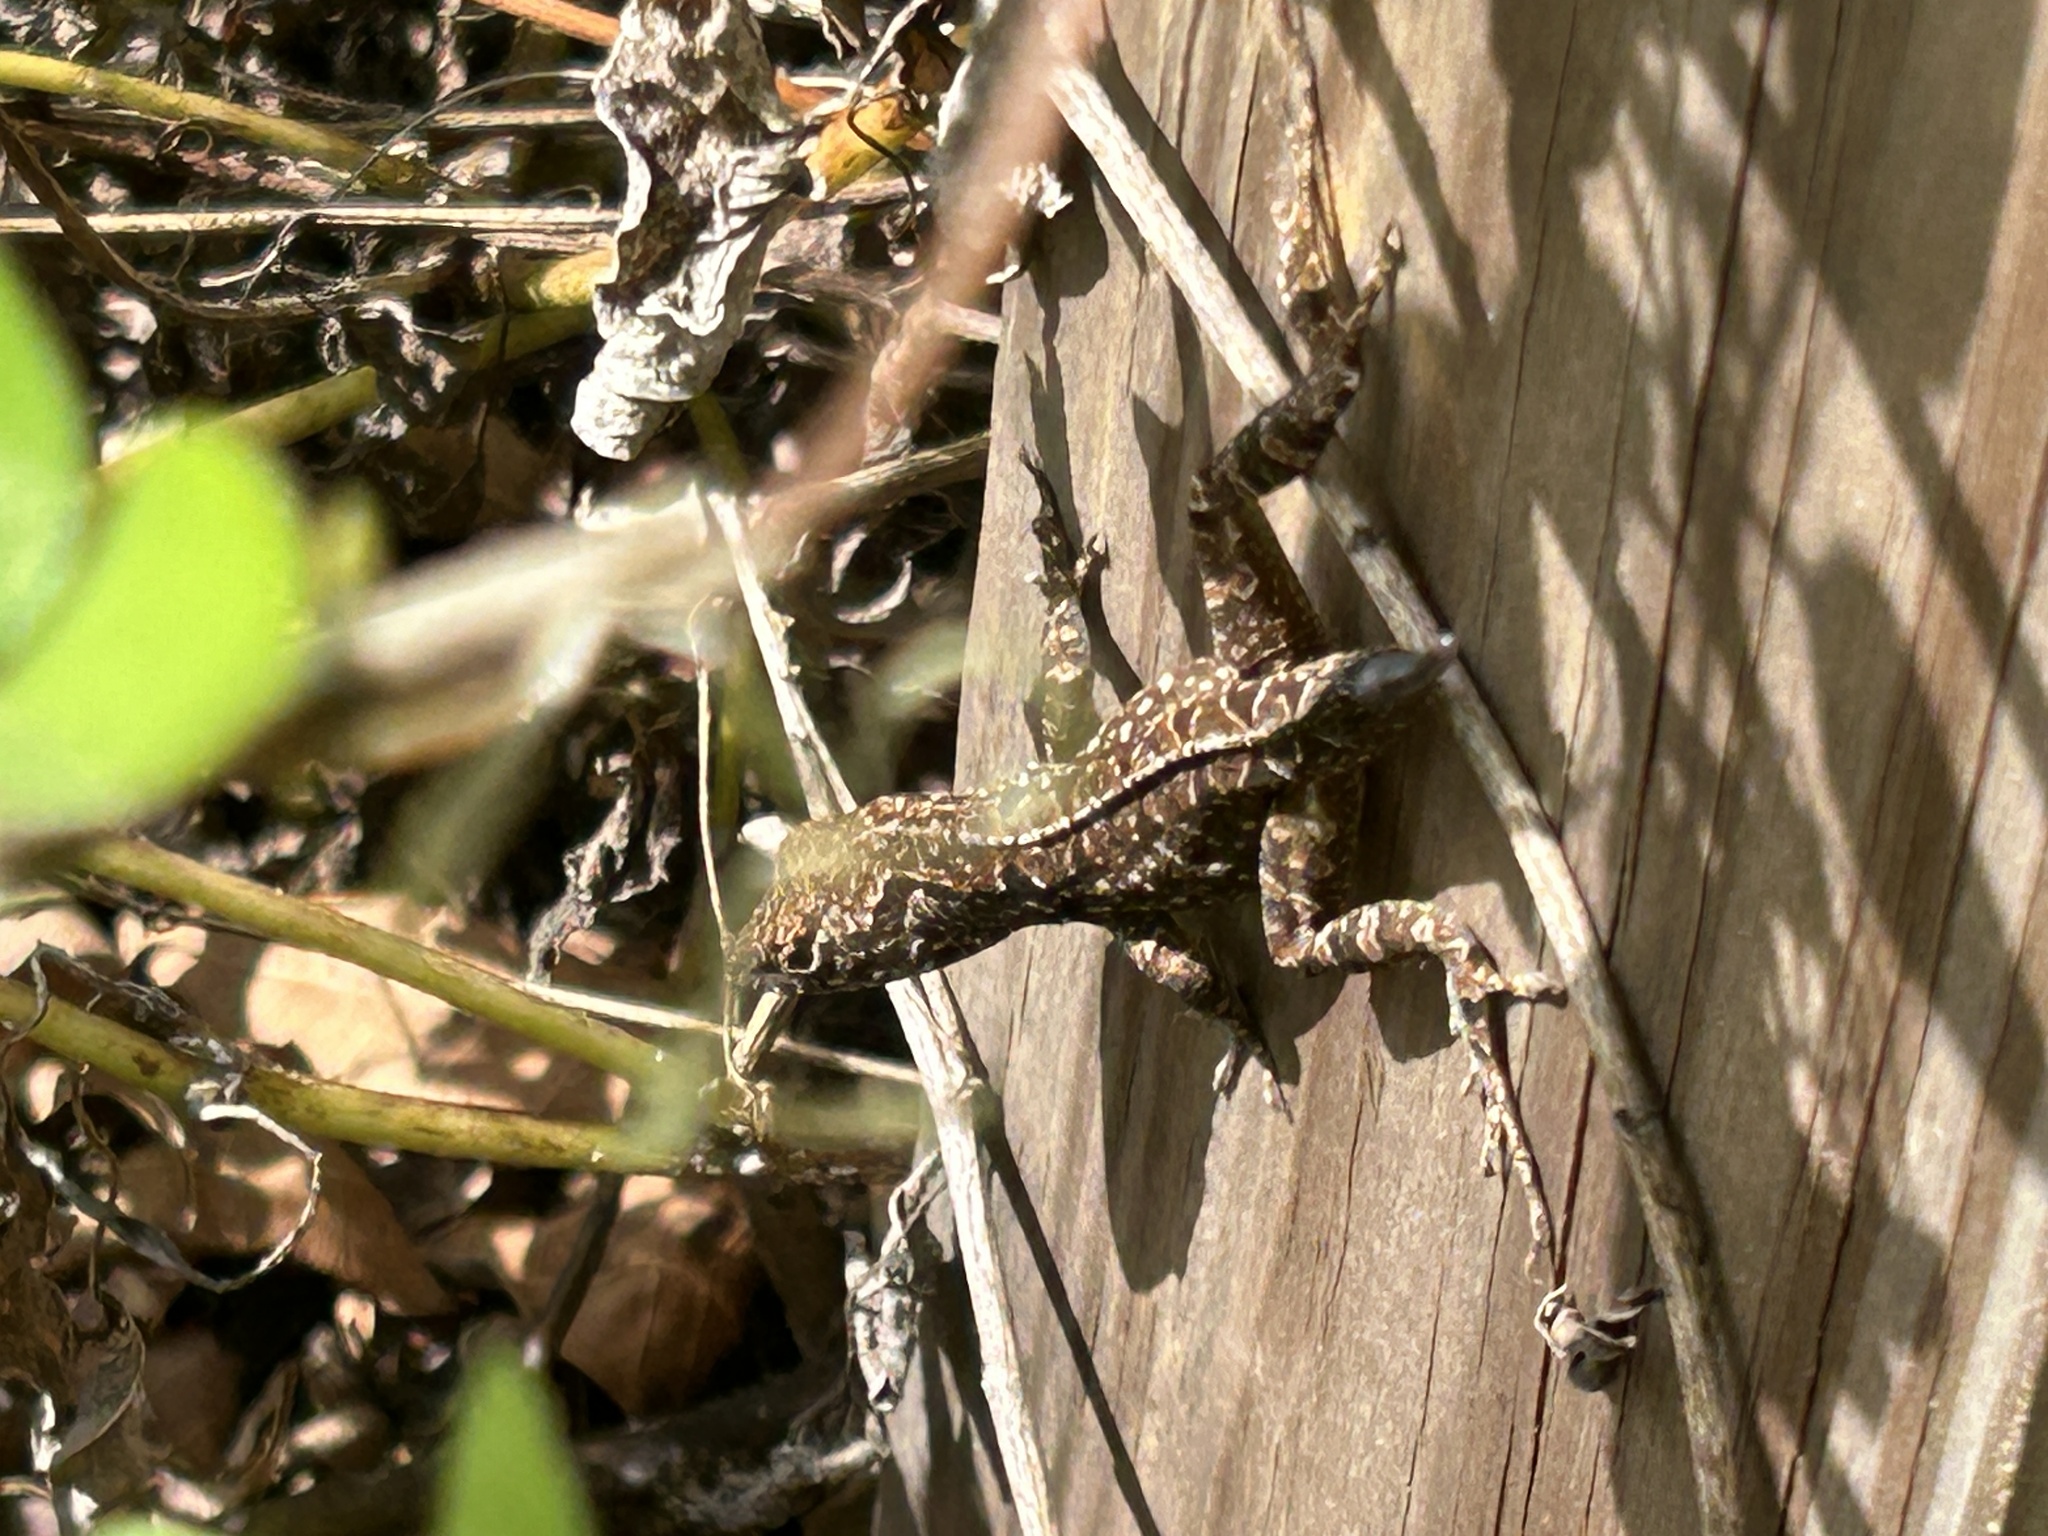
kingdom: Animalia
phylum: Chordata
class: Squamata
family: Dactyloidae
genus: Anolis
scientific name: Anolis sagrei
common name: Brown anole
